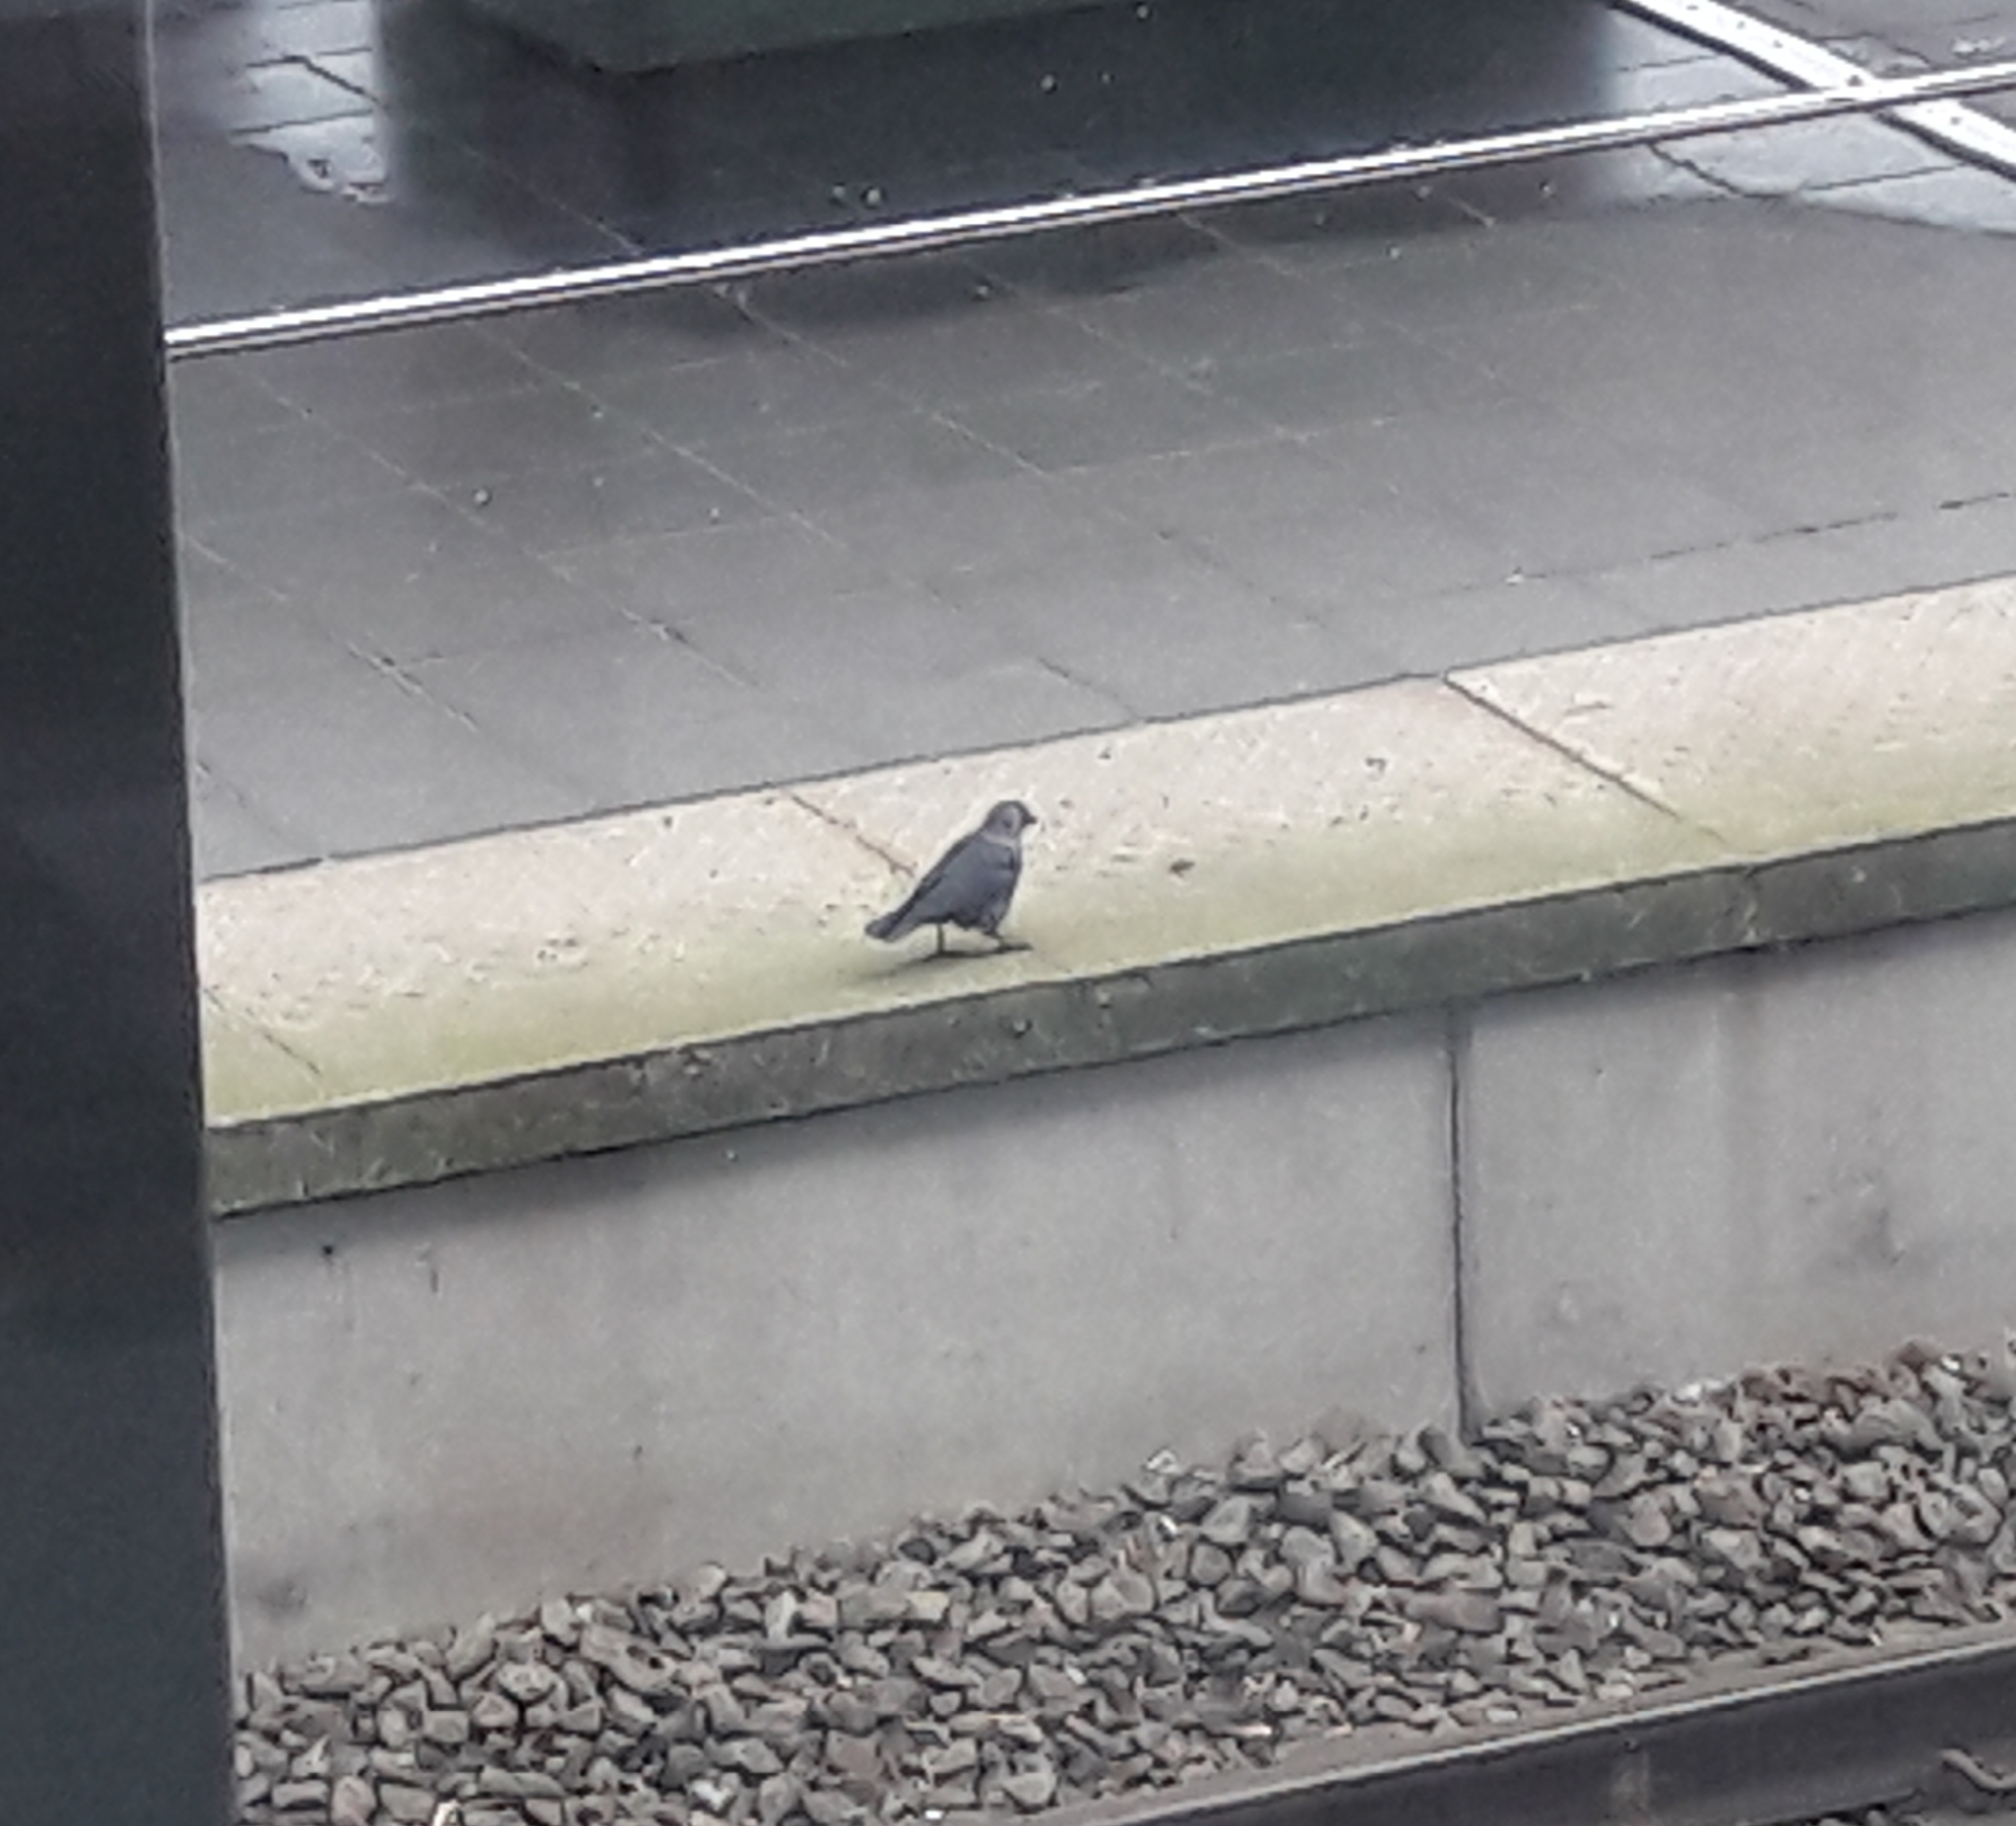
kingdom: Animalia
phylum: Chordata
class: Aves
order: Passeriformes
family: Corvidae
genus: Coloeus
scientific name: Coloeus monedula
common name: Western jackdaw
